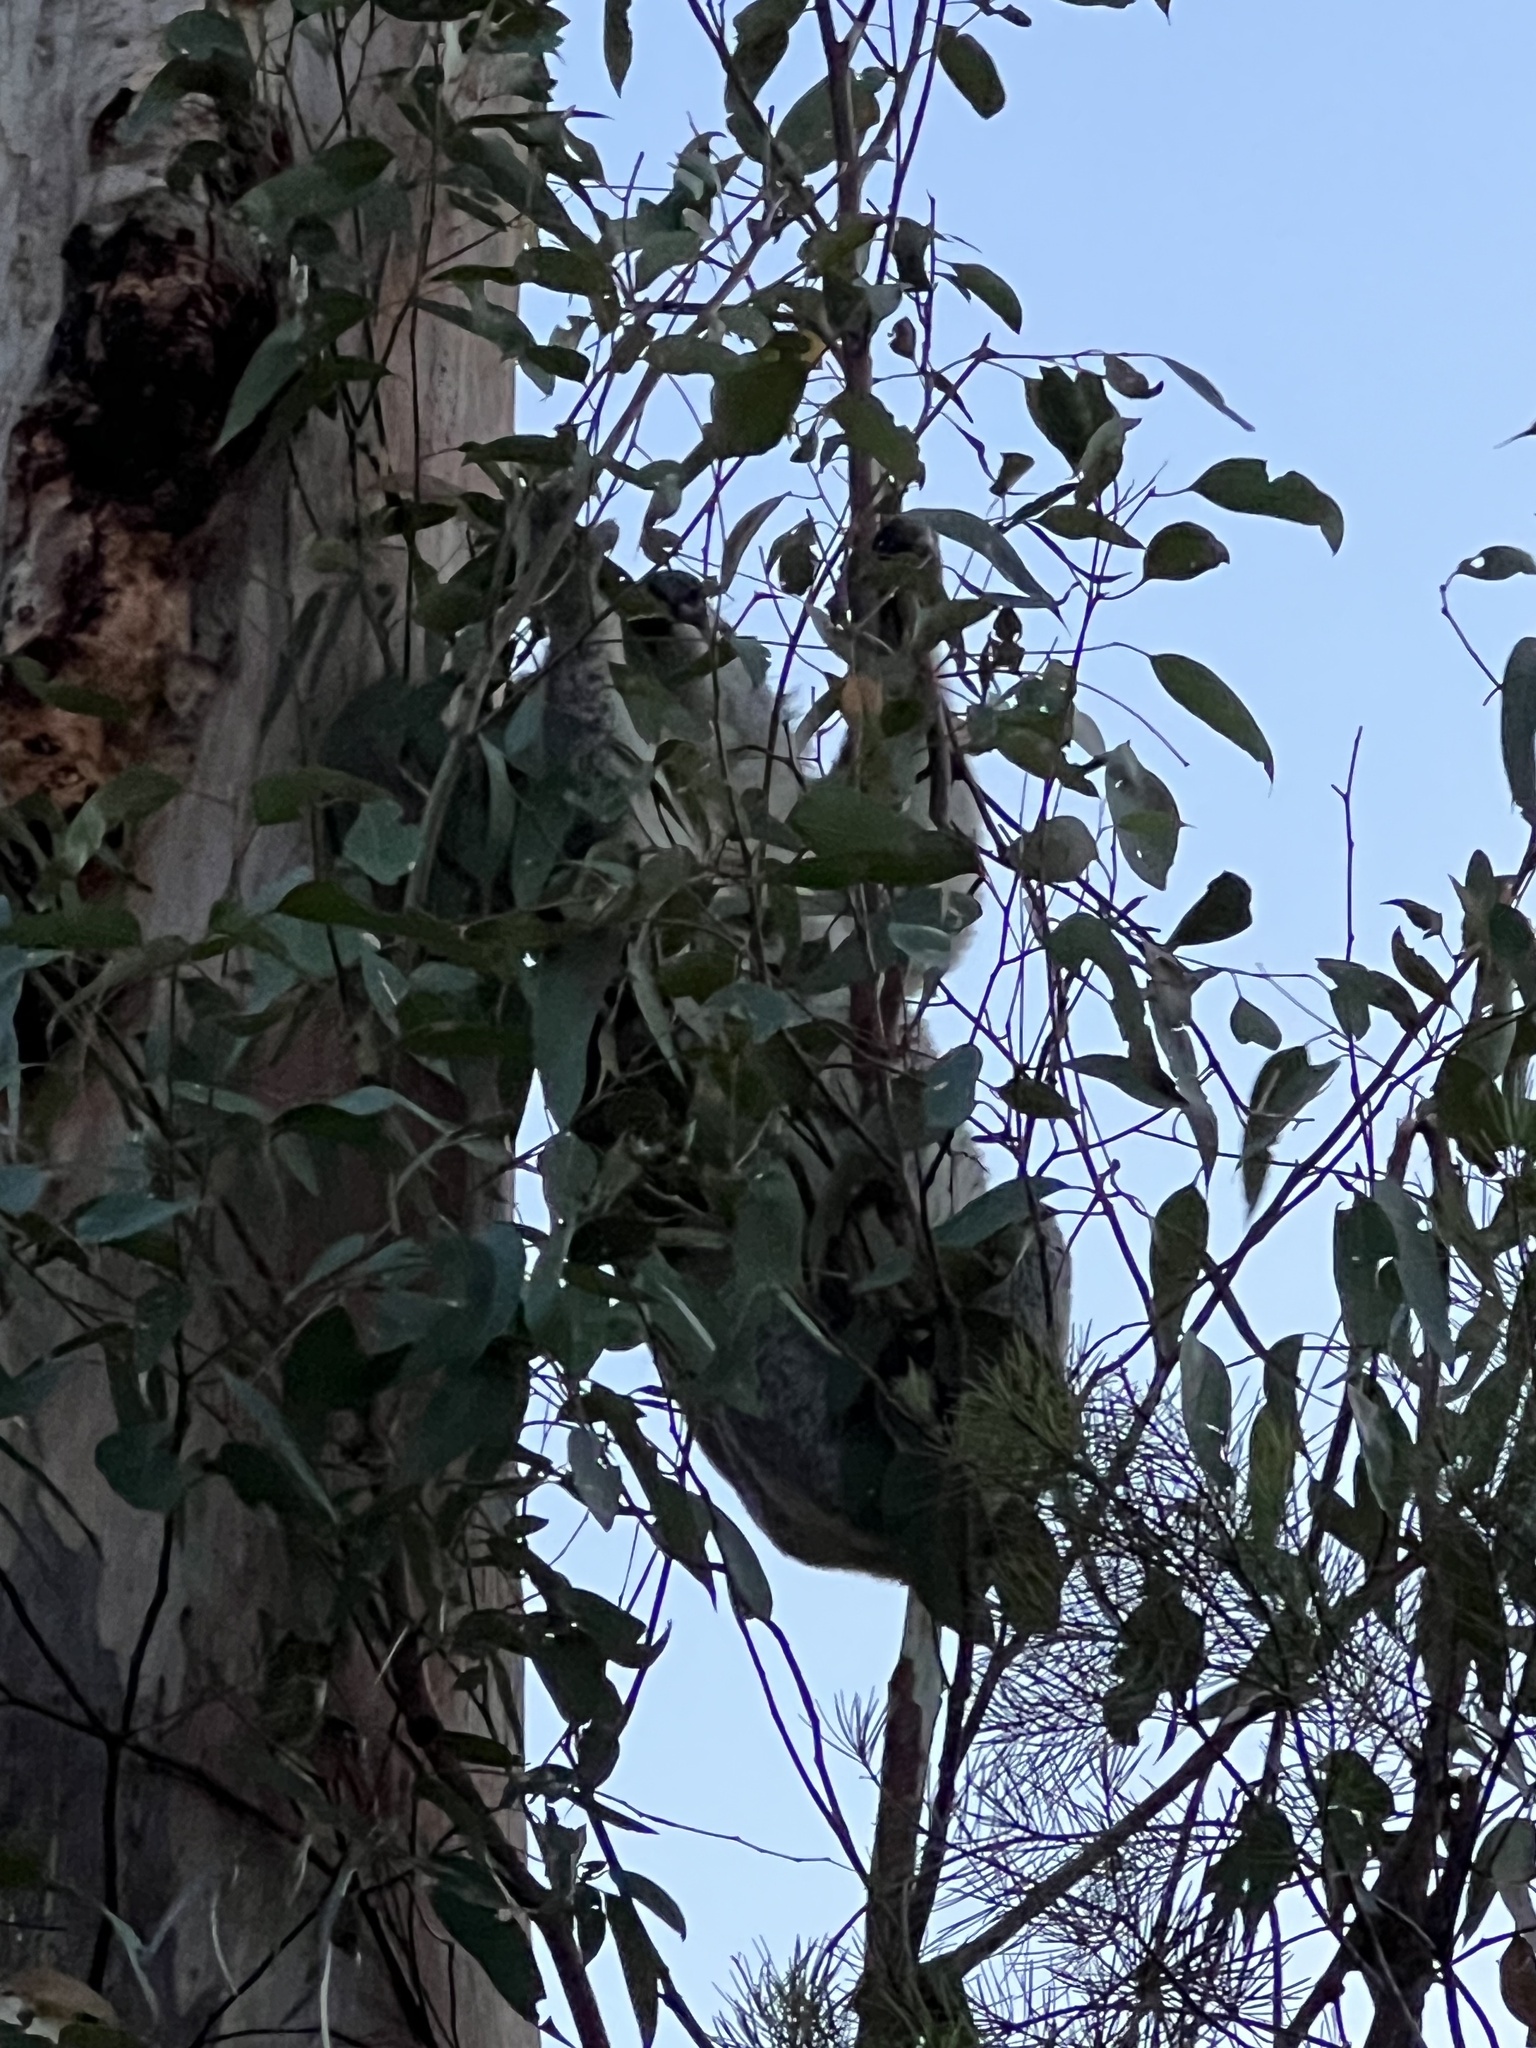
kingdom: Animalia
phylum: Chordata
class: Mammalia
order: Diprotodontia
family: Phascolarctidae
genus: Phascolarctos
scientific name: Phascolarctos cinereus
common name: Koala
